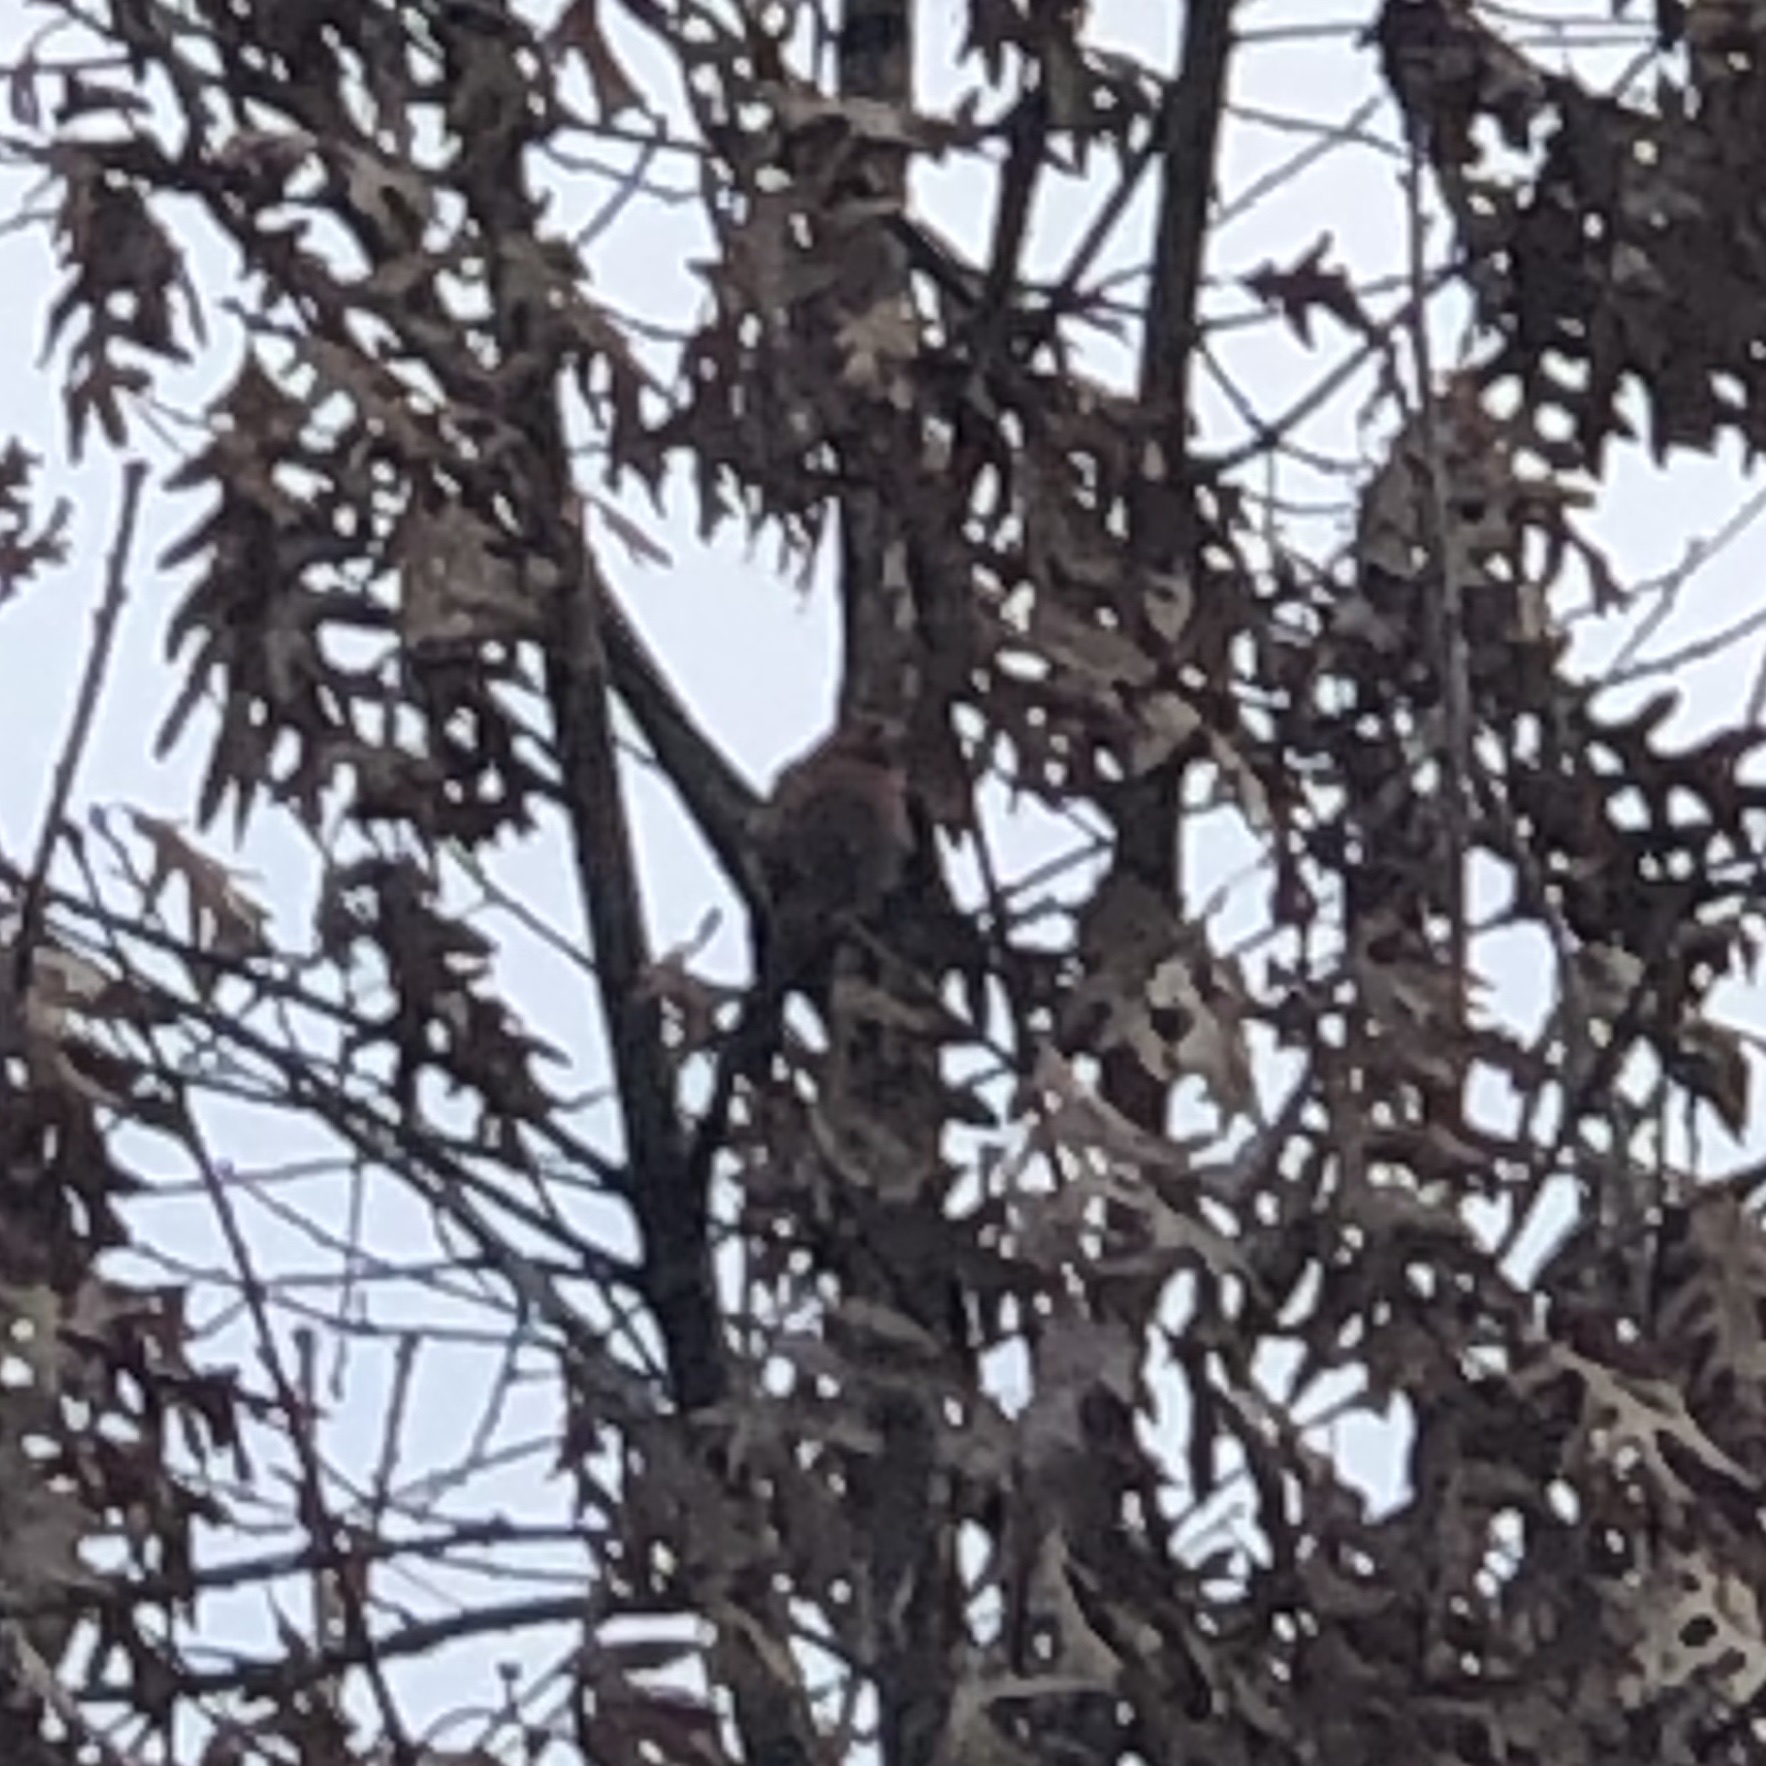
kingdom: Animalia
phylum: Chordata
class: Aves
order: Passeriformes
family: Fringillidae
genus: Haemorhous
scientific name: Haemorhous mexicanus
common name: House finch
